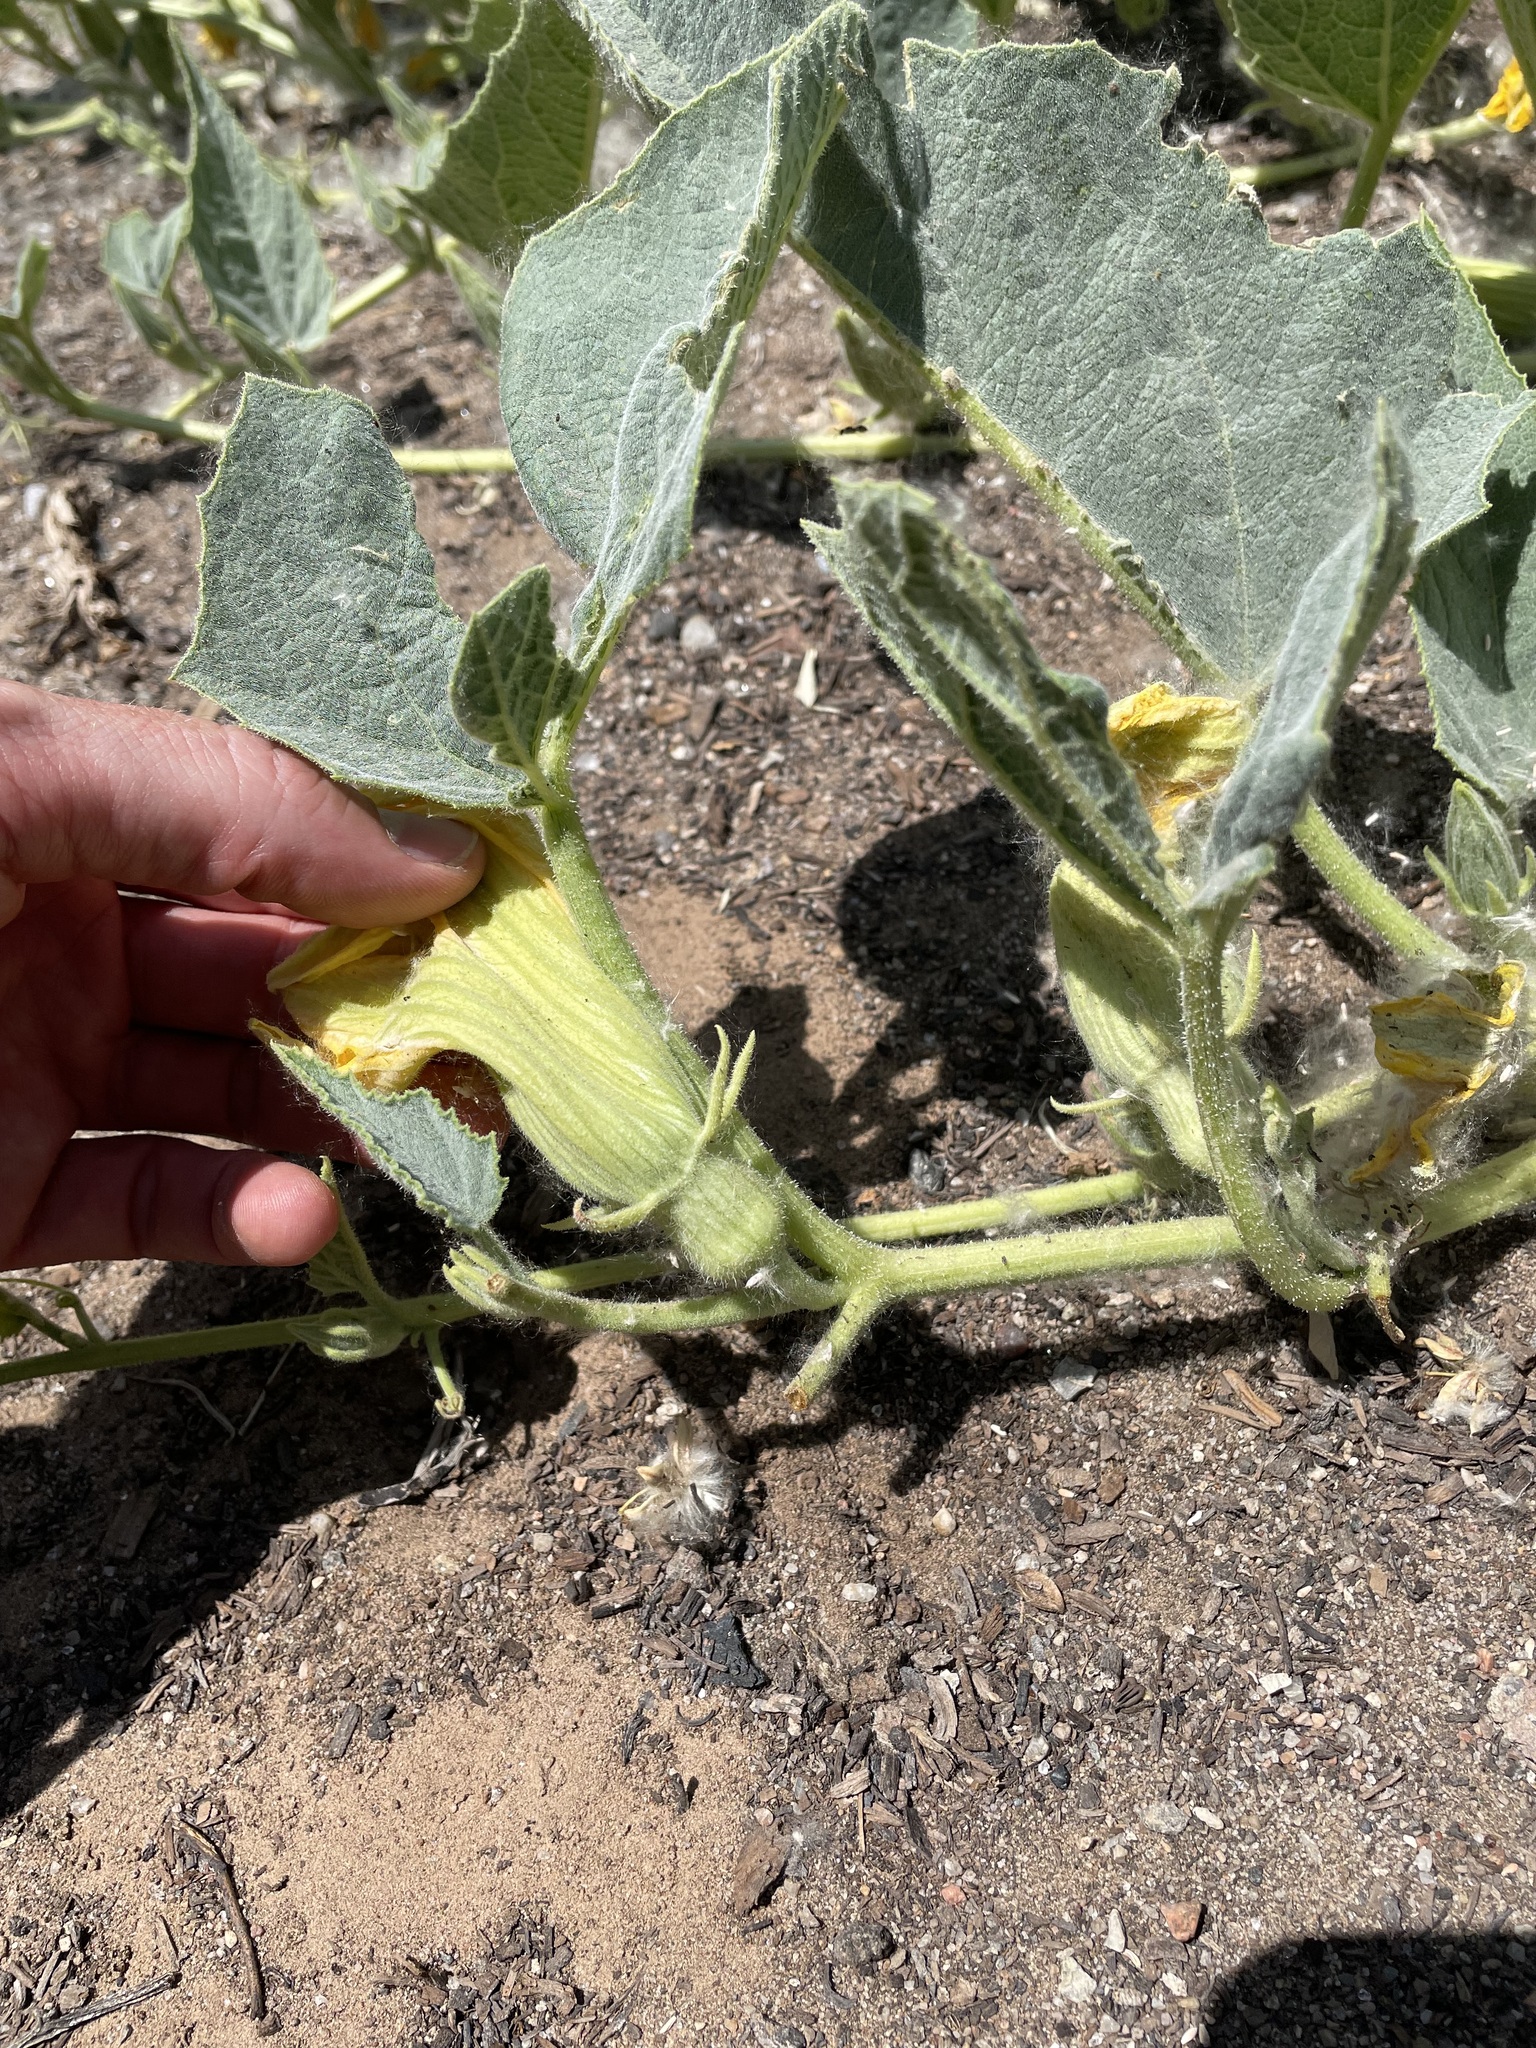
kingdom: Plantae
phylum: Tracheophyta
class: Magnoliopsida
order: Cucurbitales
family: Cucurbitaceae
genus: Cucurbita
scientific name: Cucurbita foetidissima
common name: Buffalo gourd
